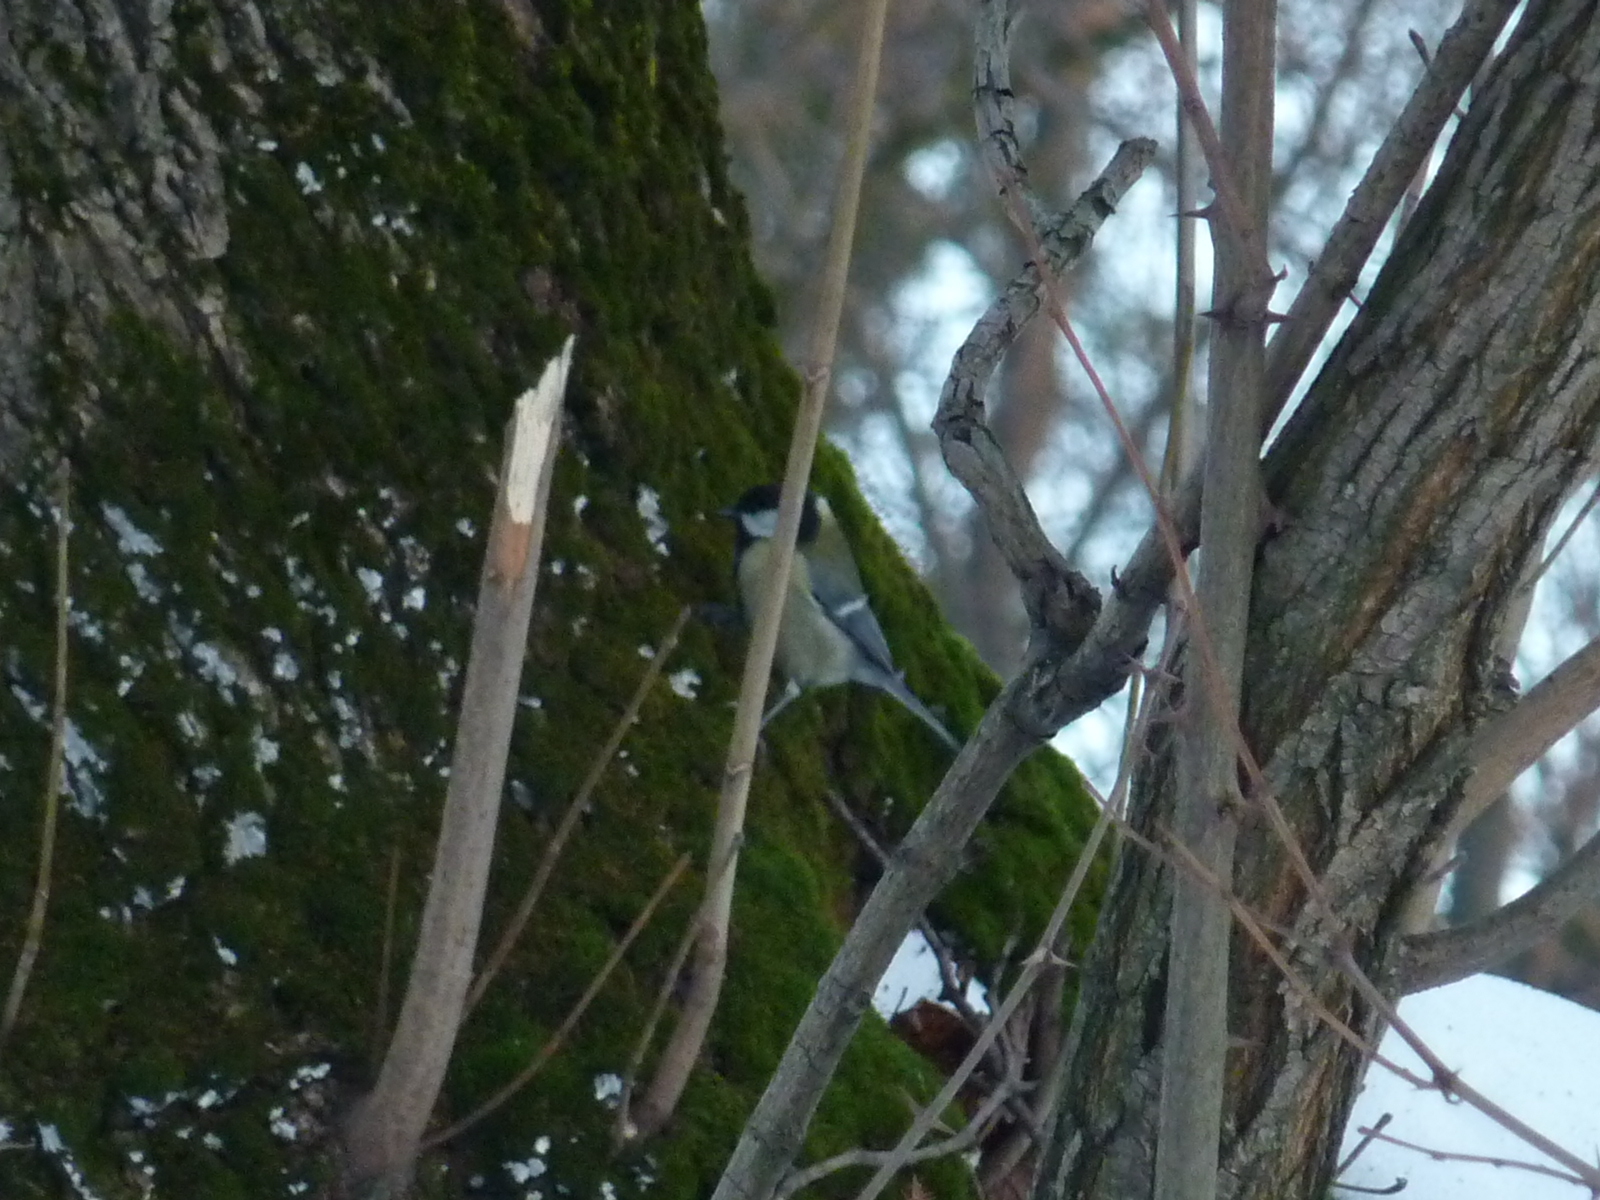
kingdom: Animalia
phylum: Chordata
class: Aves
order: Passeriformes
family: Paridae
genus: Parus
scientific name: Parus major
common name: Great tit
